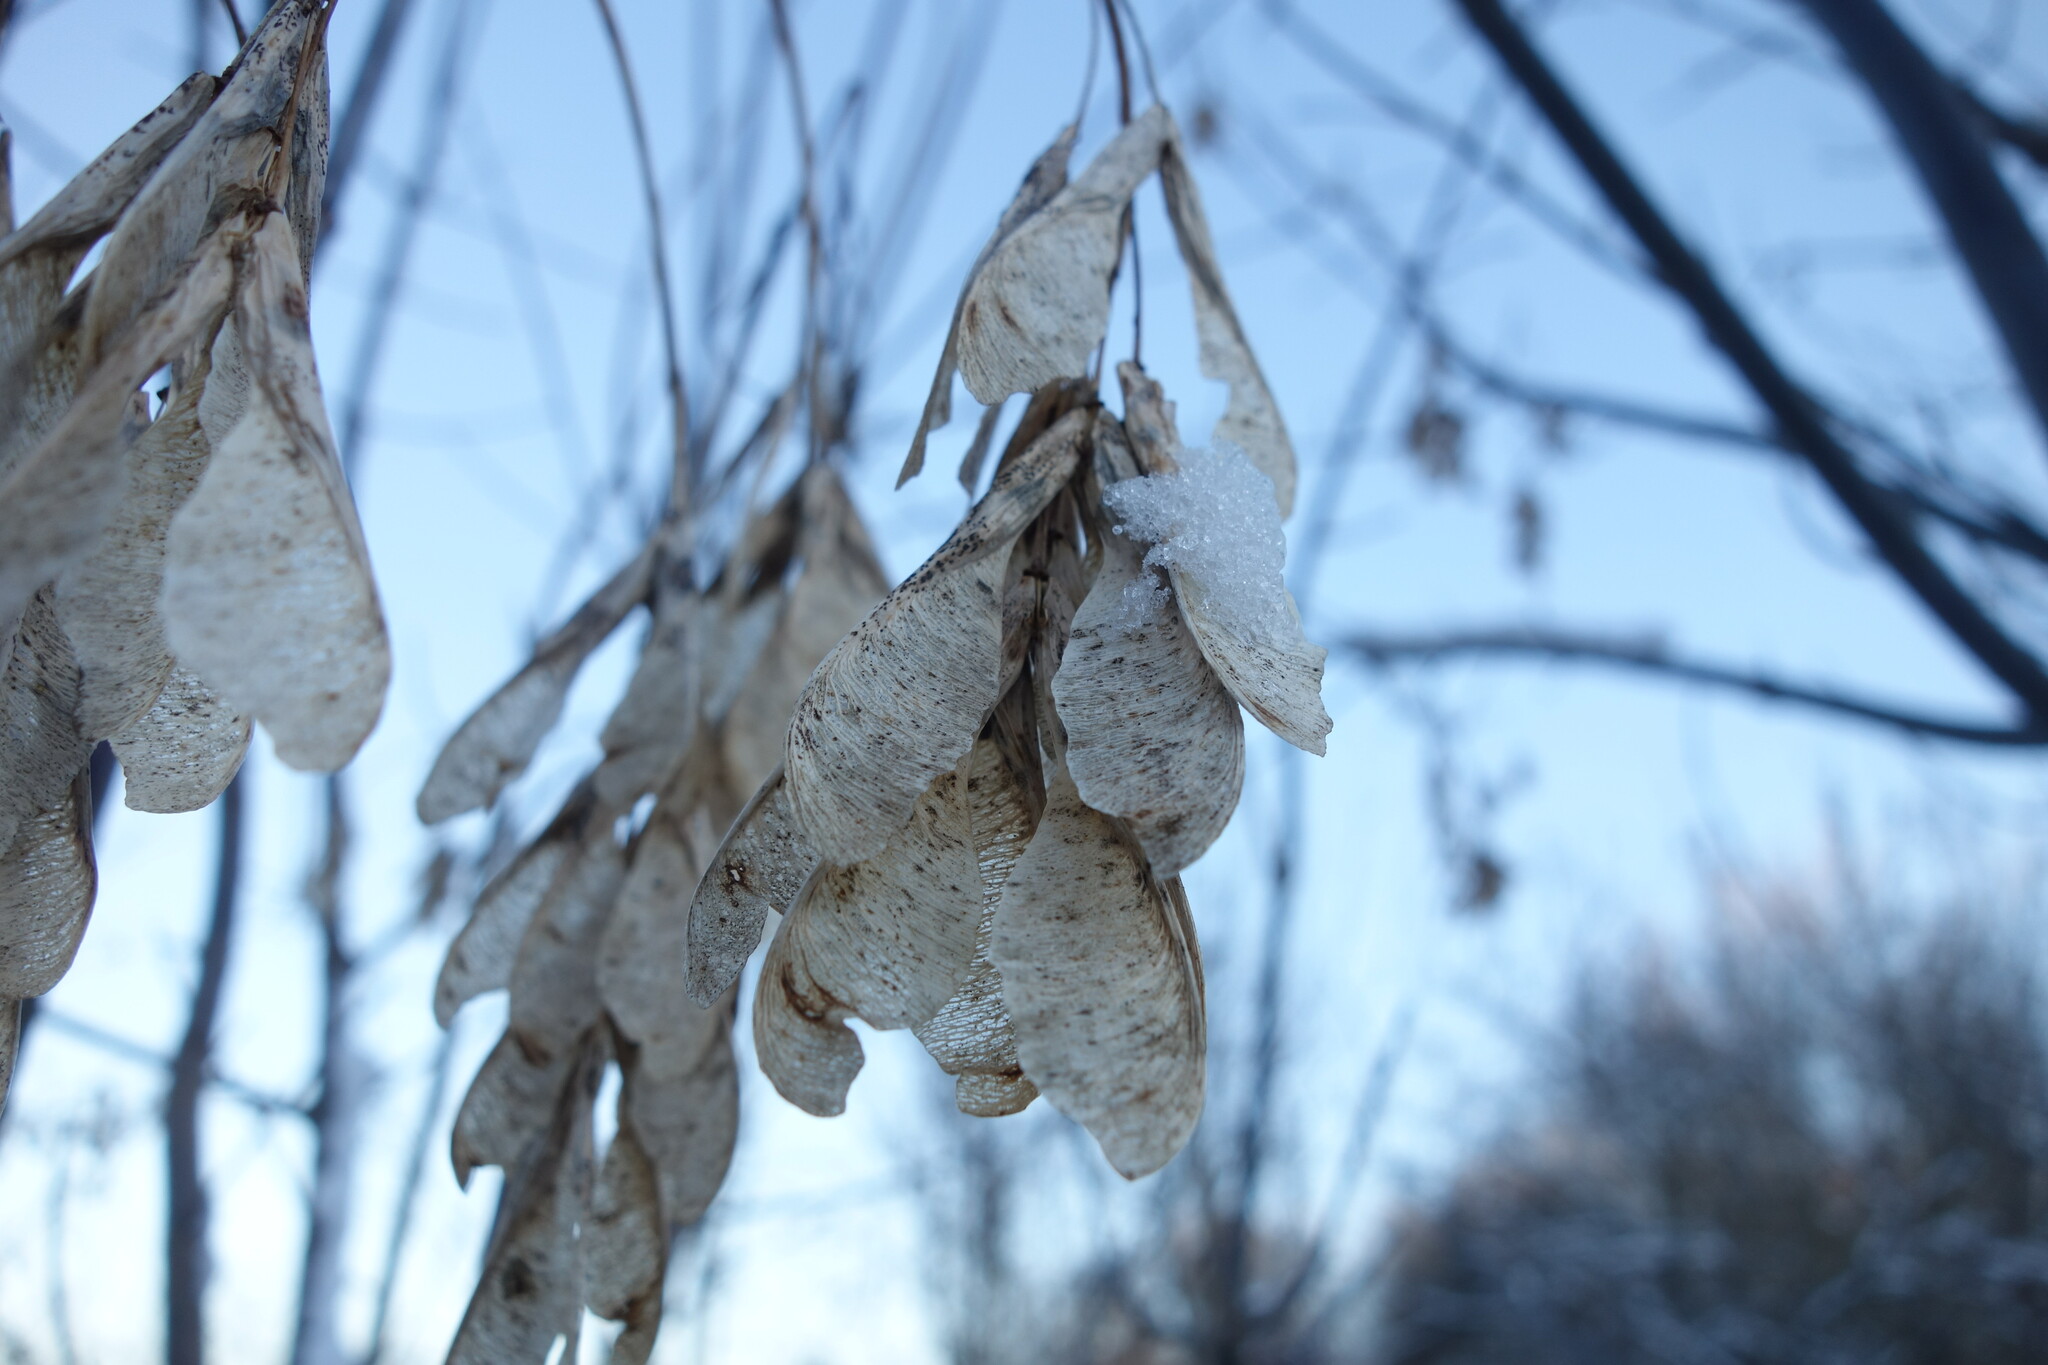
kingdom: Plantae
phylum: Tracheophyta
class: Magnoliopsida
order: Sapindales
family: Sapindaceae
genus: Acer
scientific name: Acer negundo
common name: Ashleaf maple
